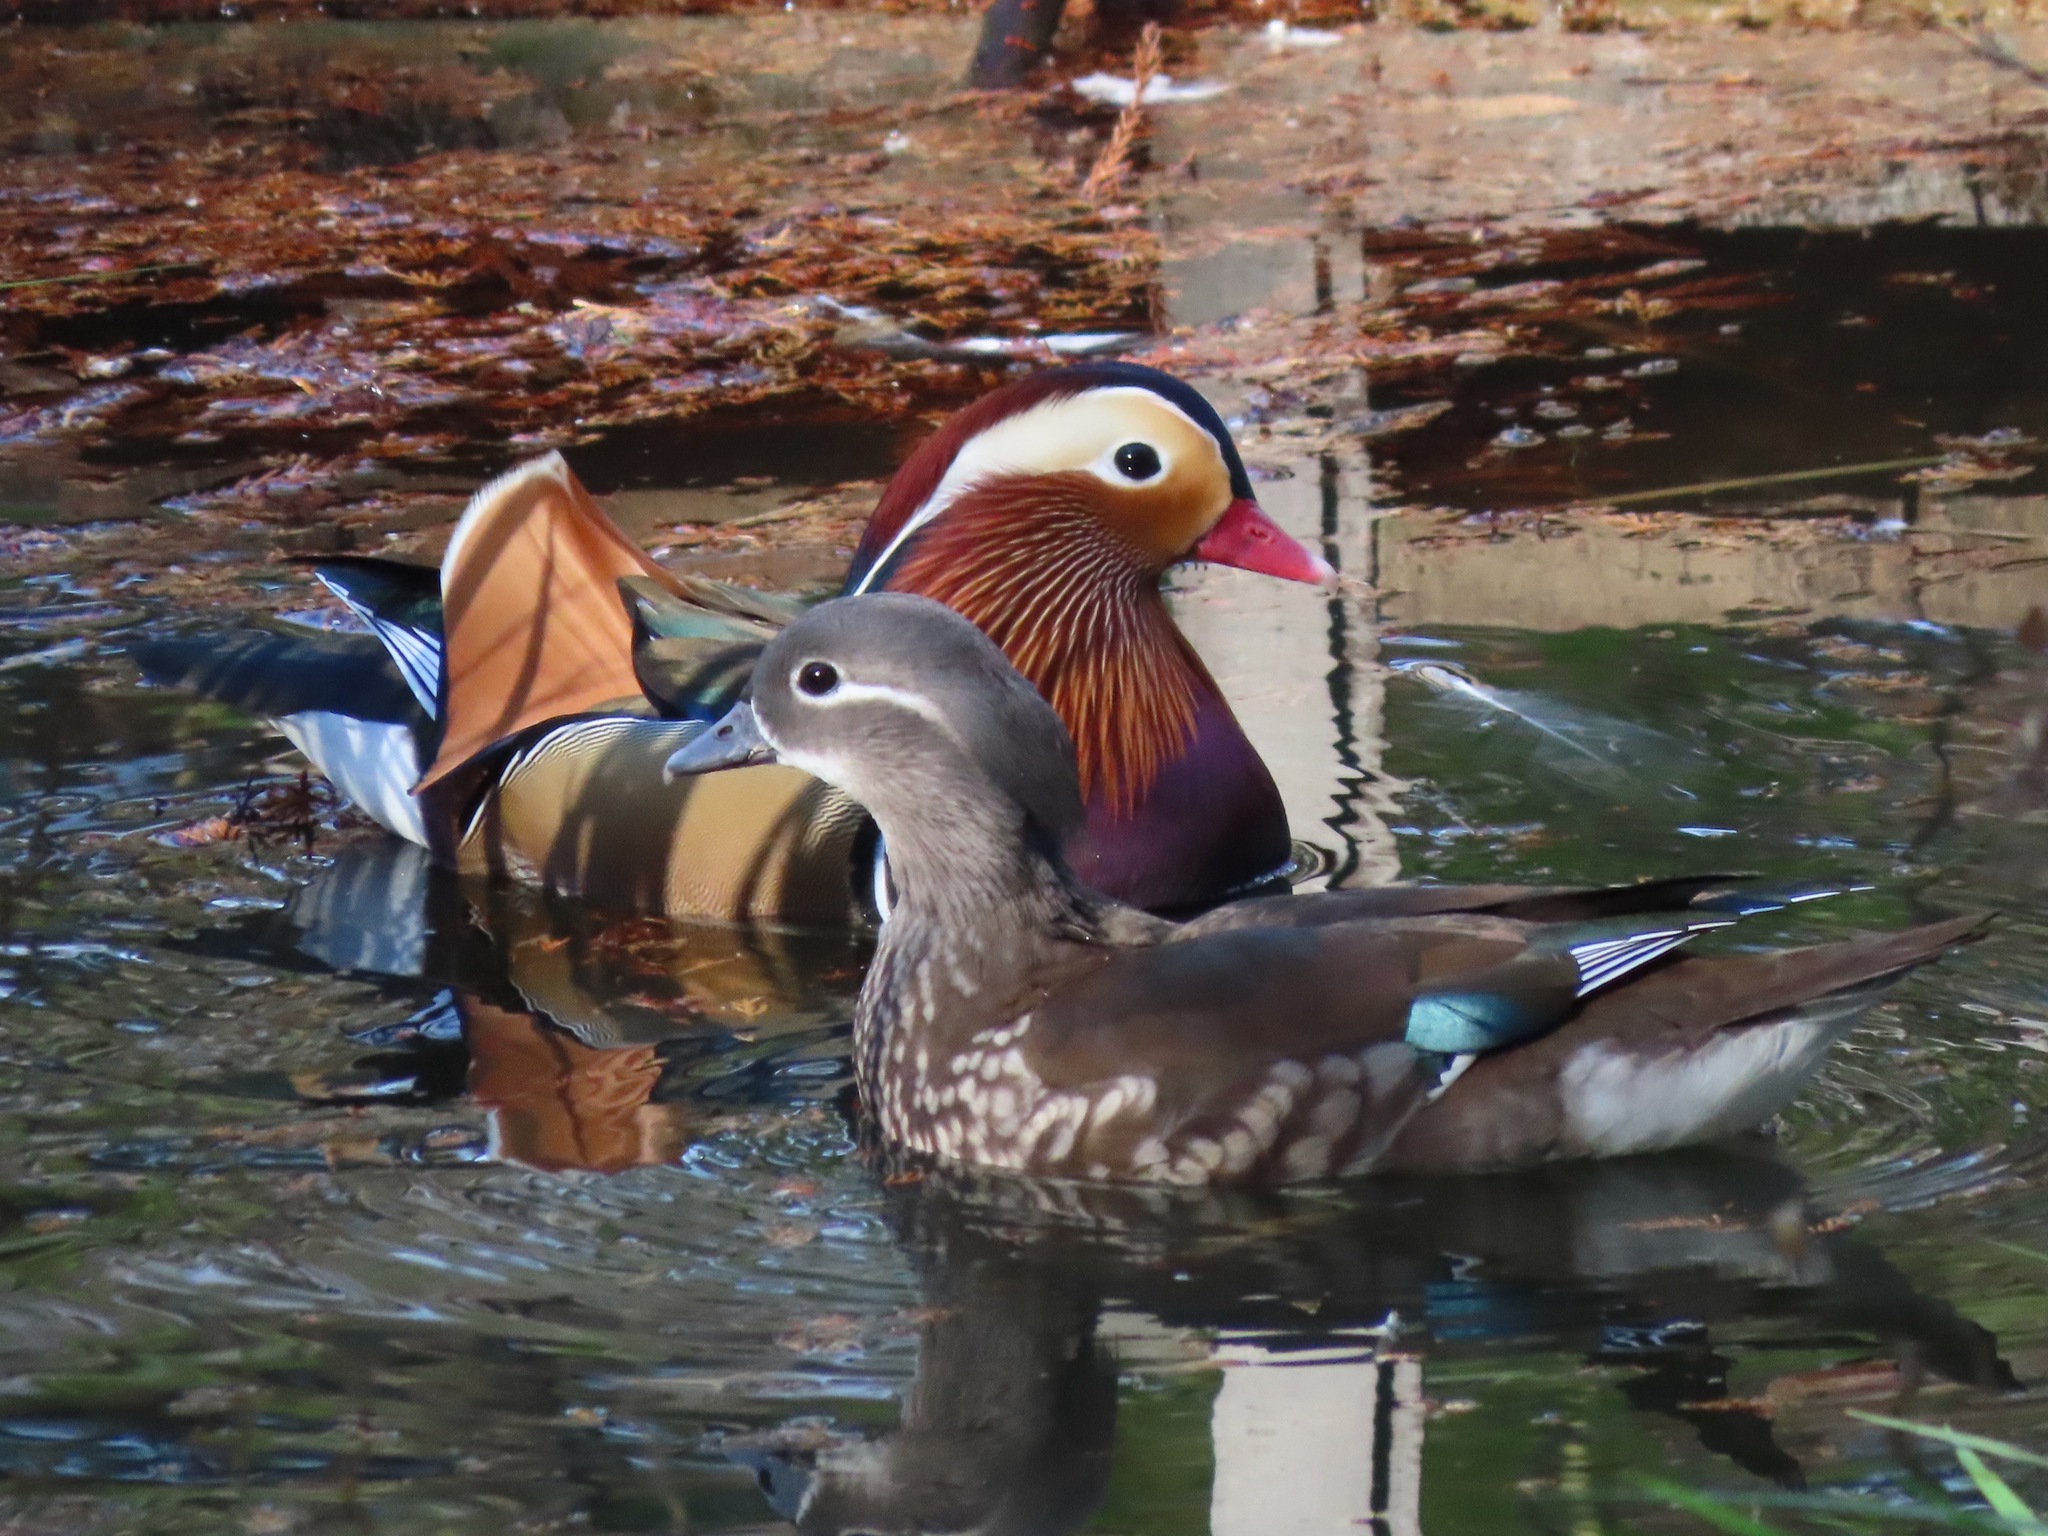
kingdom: Animalia
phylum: Chordata
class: Aves
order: Anseriformes
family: Anatidae
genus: Aix
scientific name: Aix galericulata
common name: Mandarin duck
